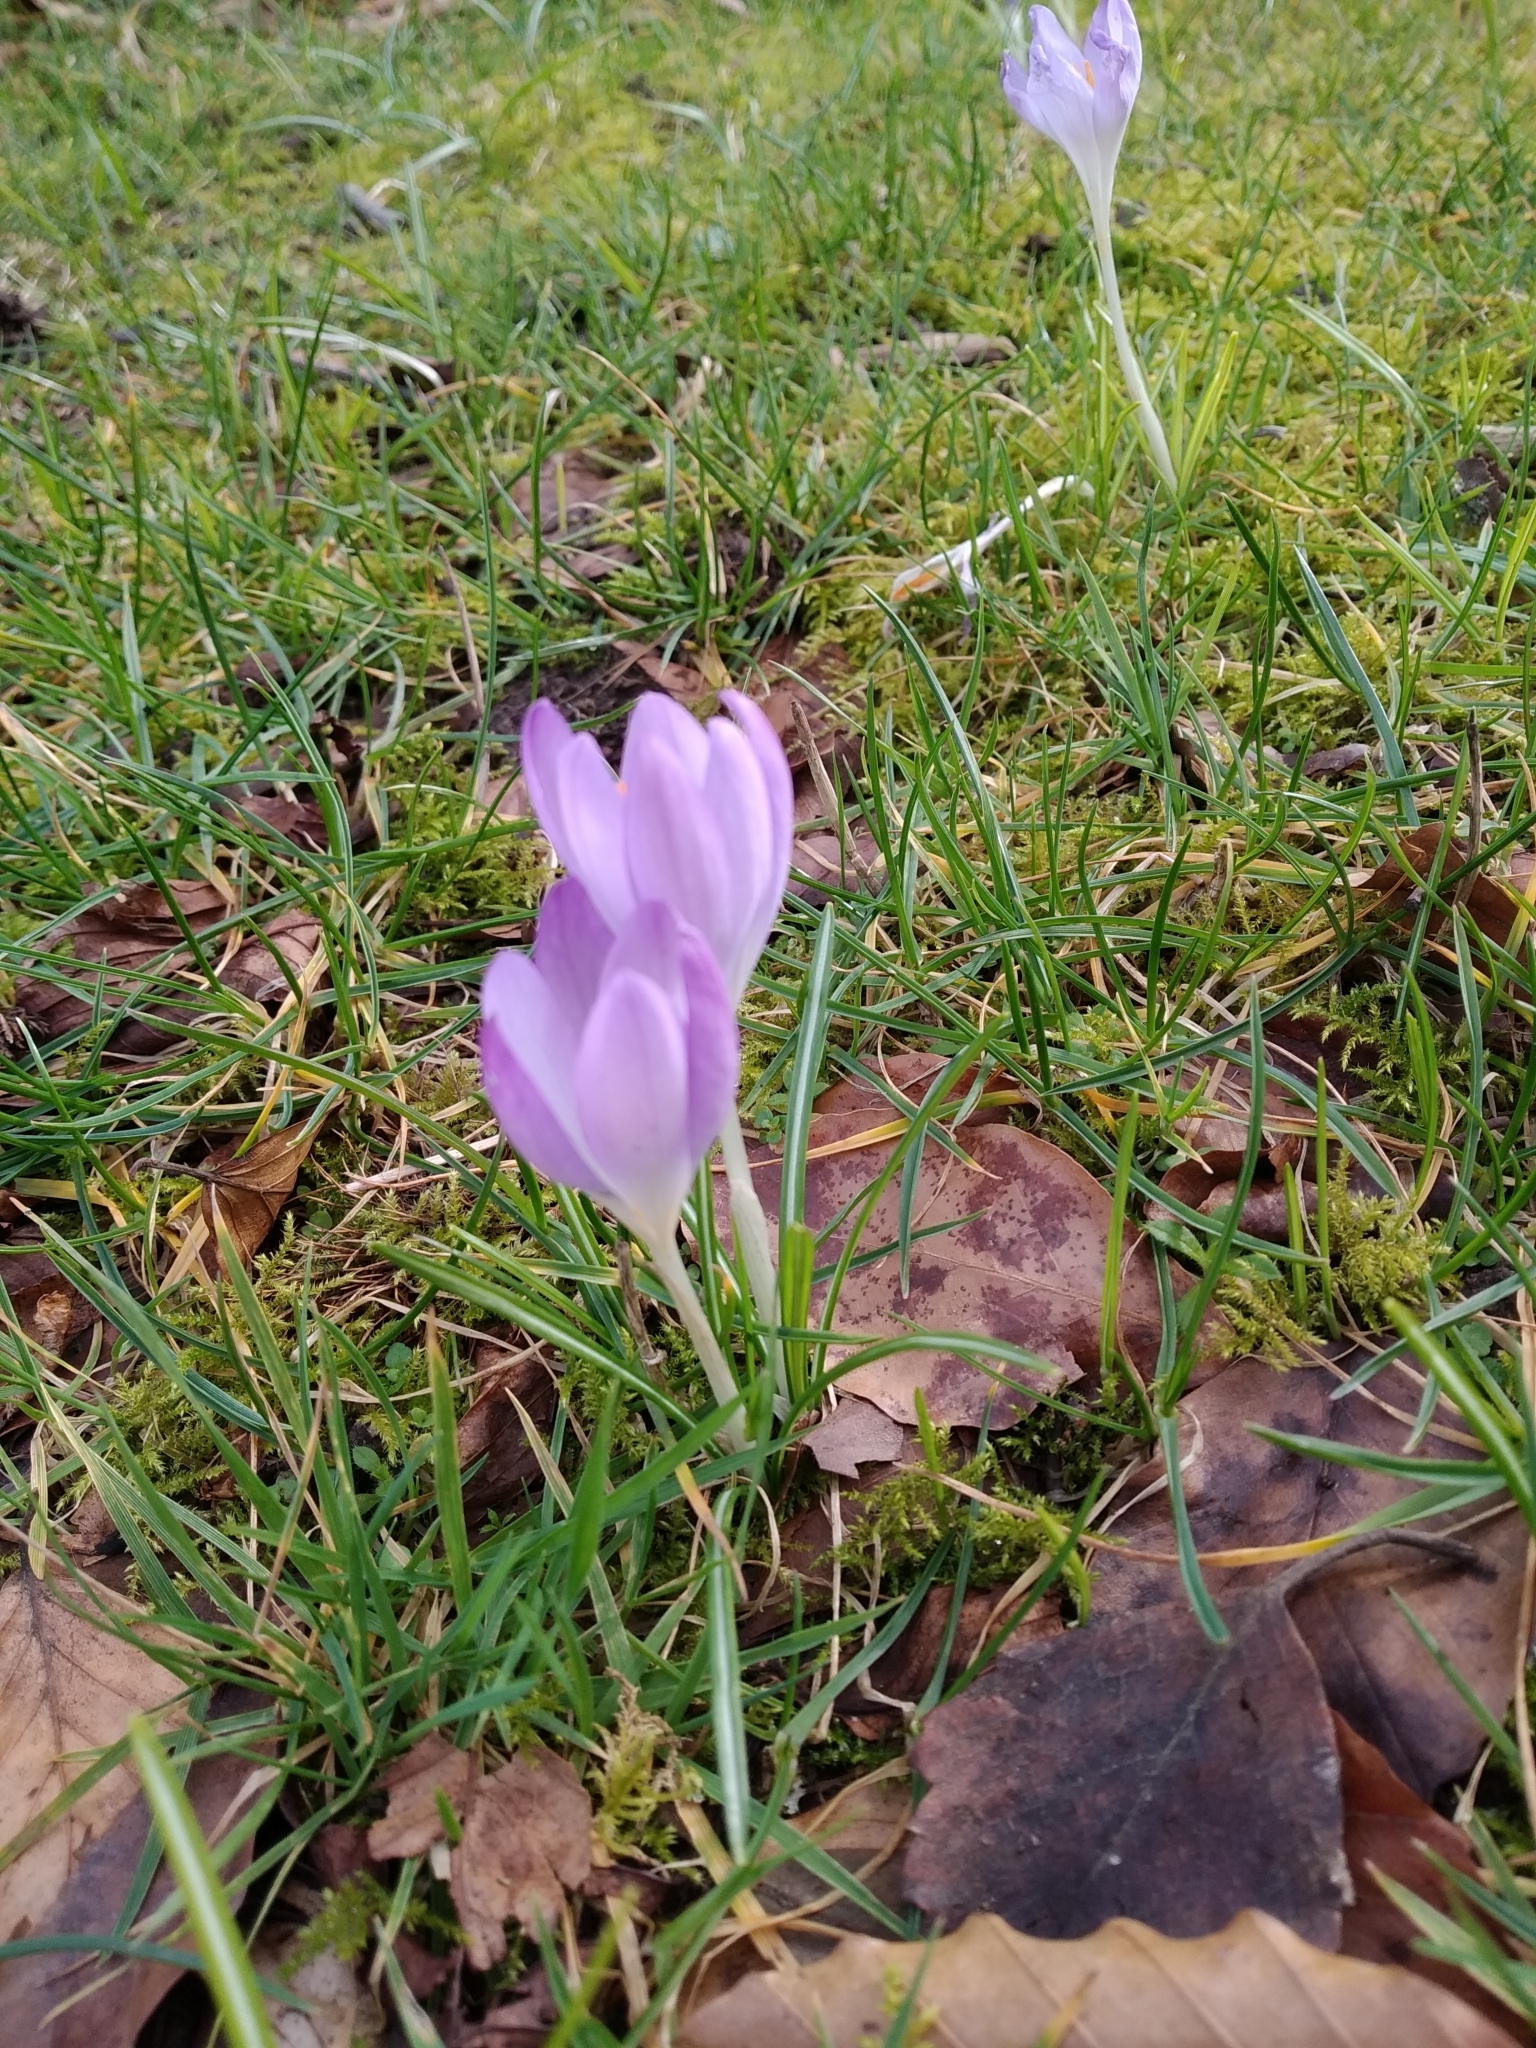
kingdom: Plantae
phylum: Tracheophyta
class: Liliopsida
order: Asparagales
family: Iridaceae
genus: Crocus
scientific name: Crocus tommasinianus
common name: Early crocus
